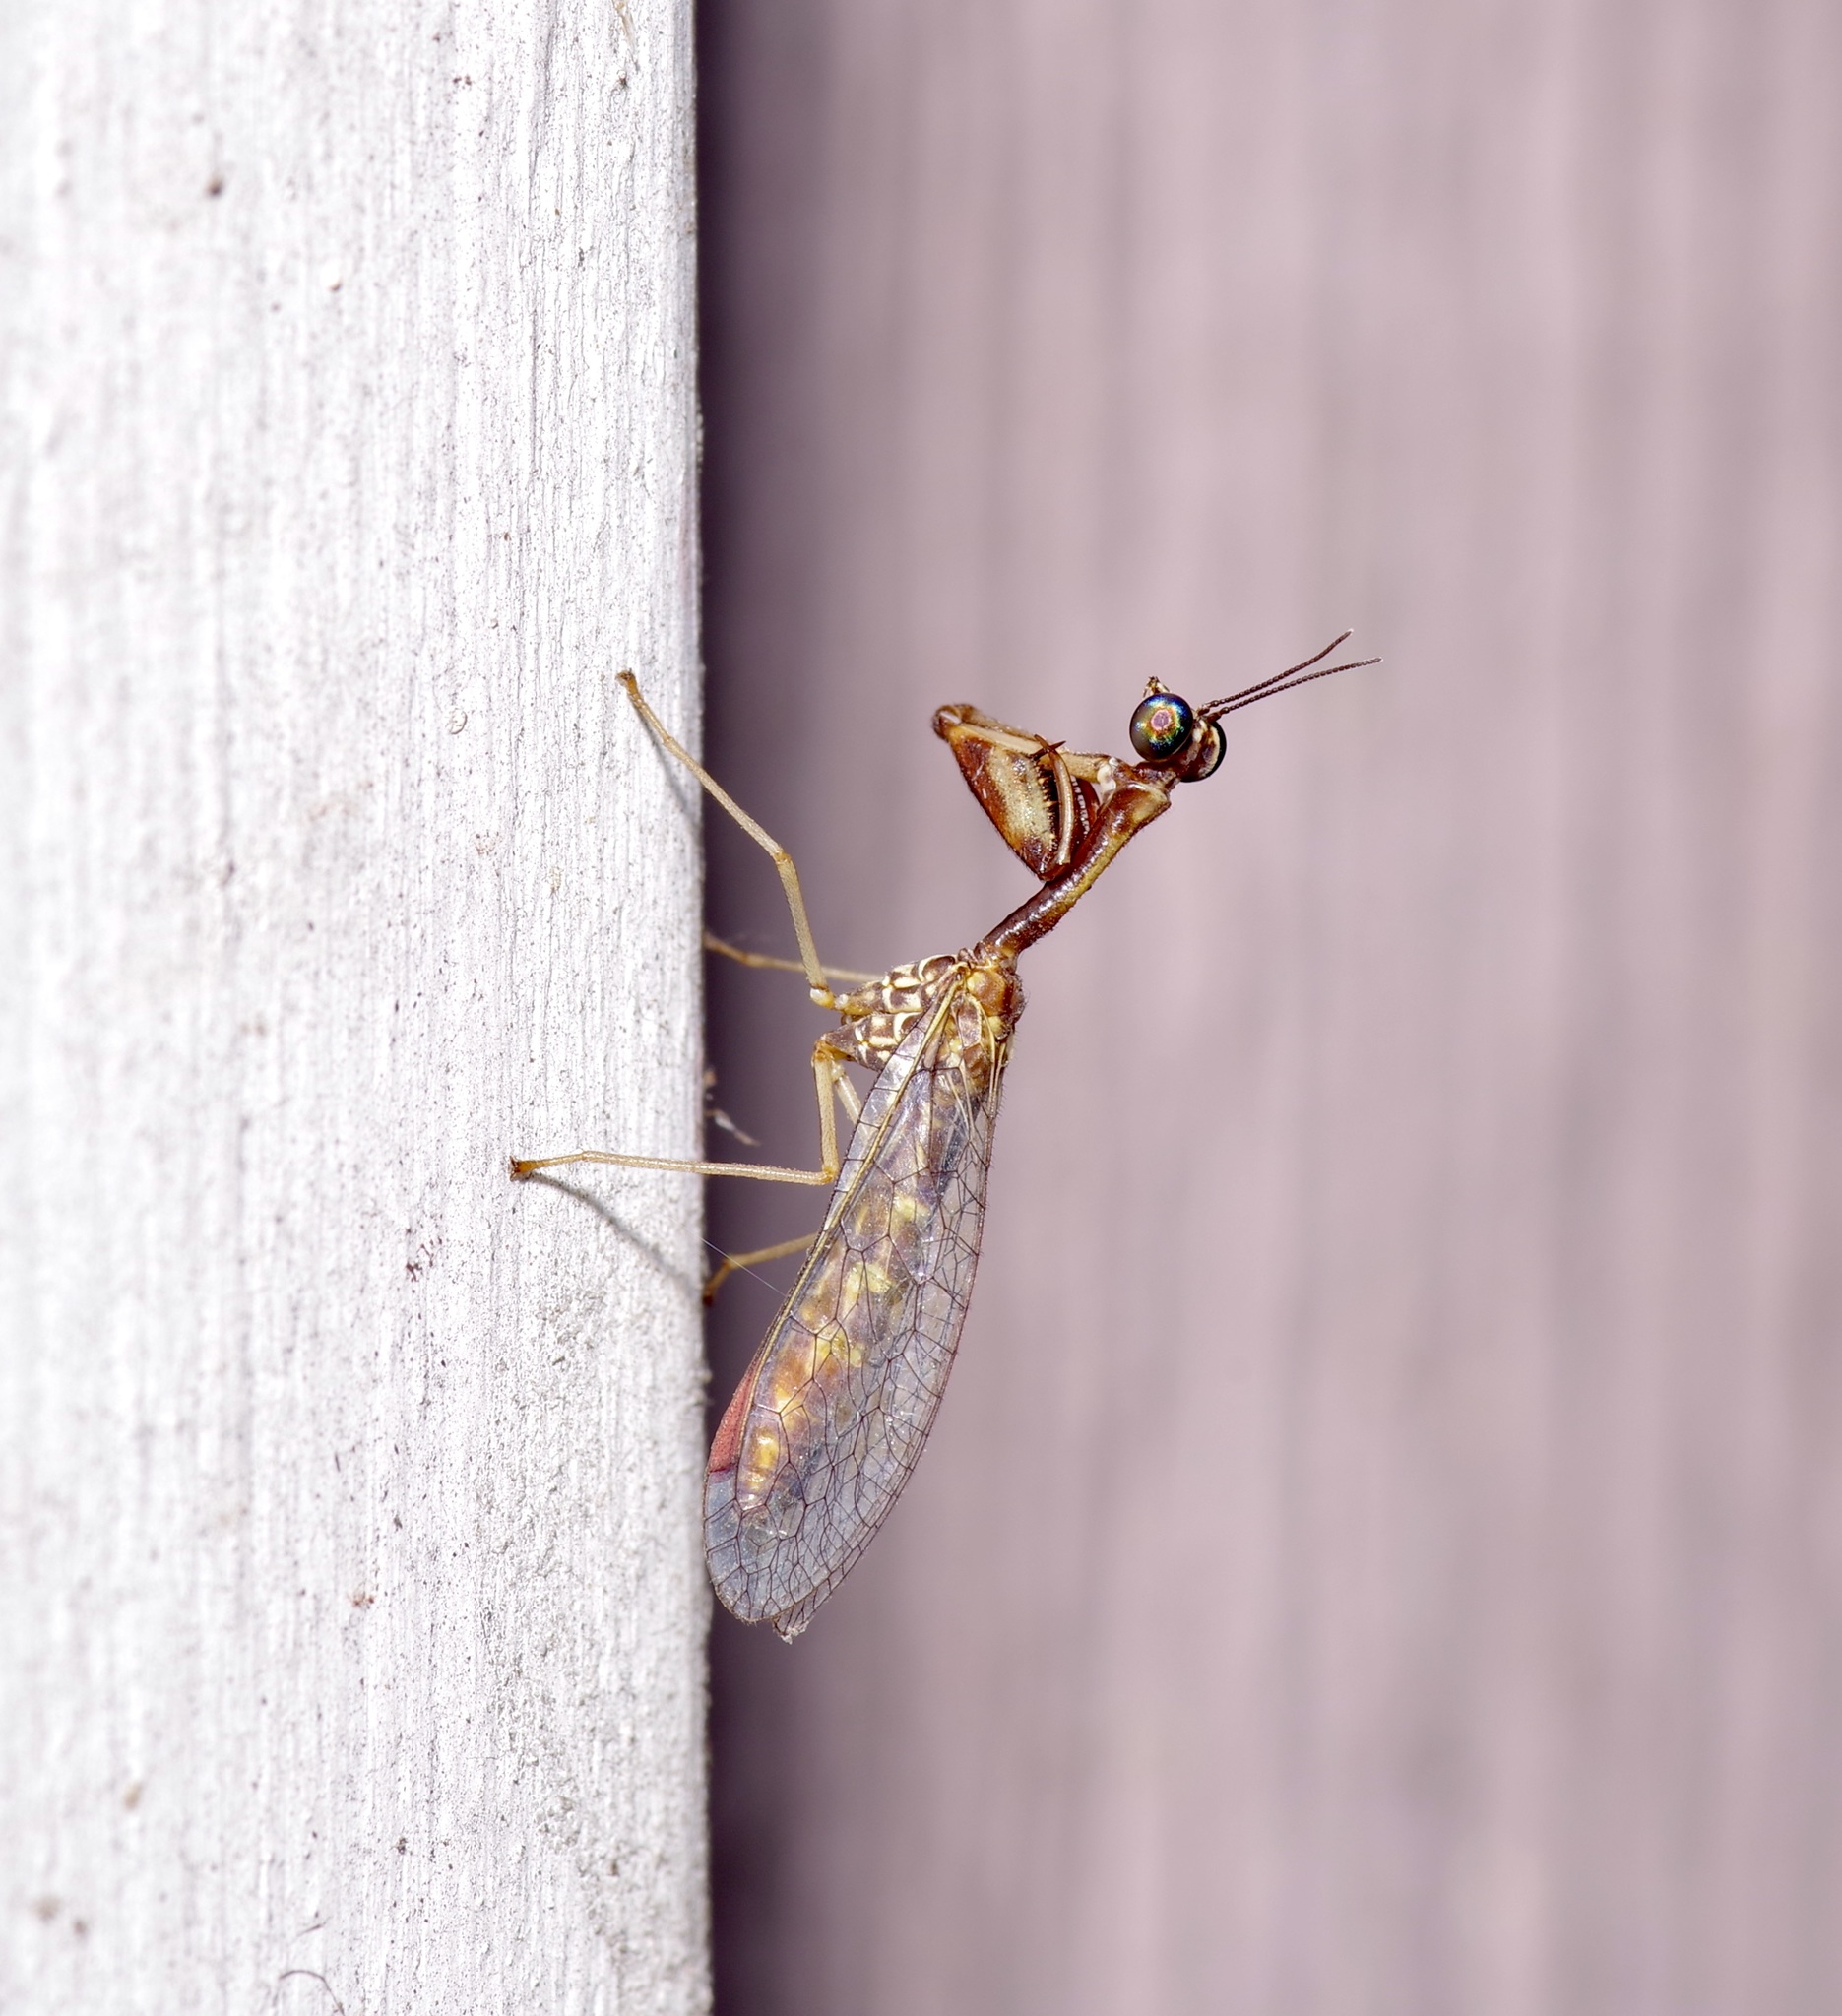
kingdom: Animalia
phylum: Arthropoda
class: Insecta
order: Neuroptera
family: Mantispidae
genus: Leptomantispa
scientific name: Leptomantispa pulchella
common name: Stevens's mantidfly
